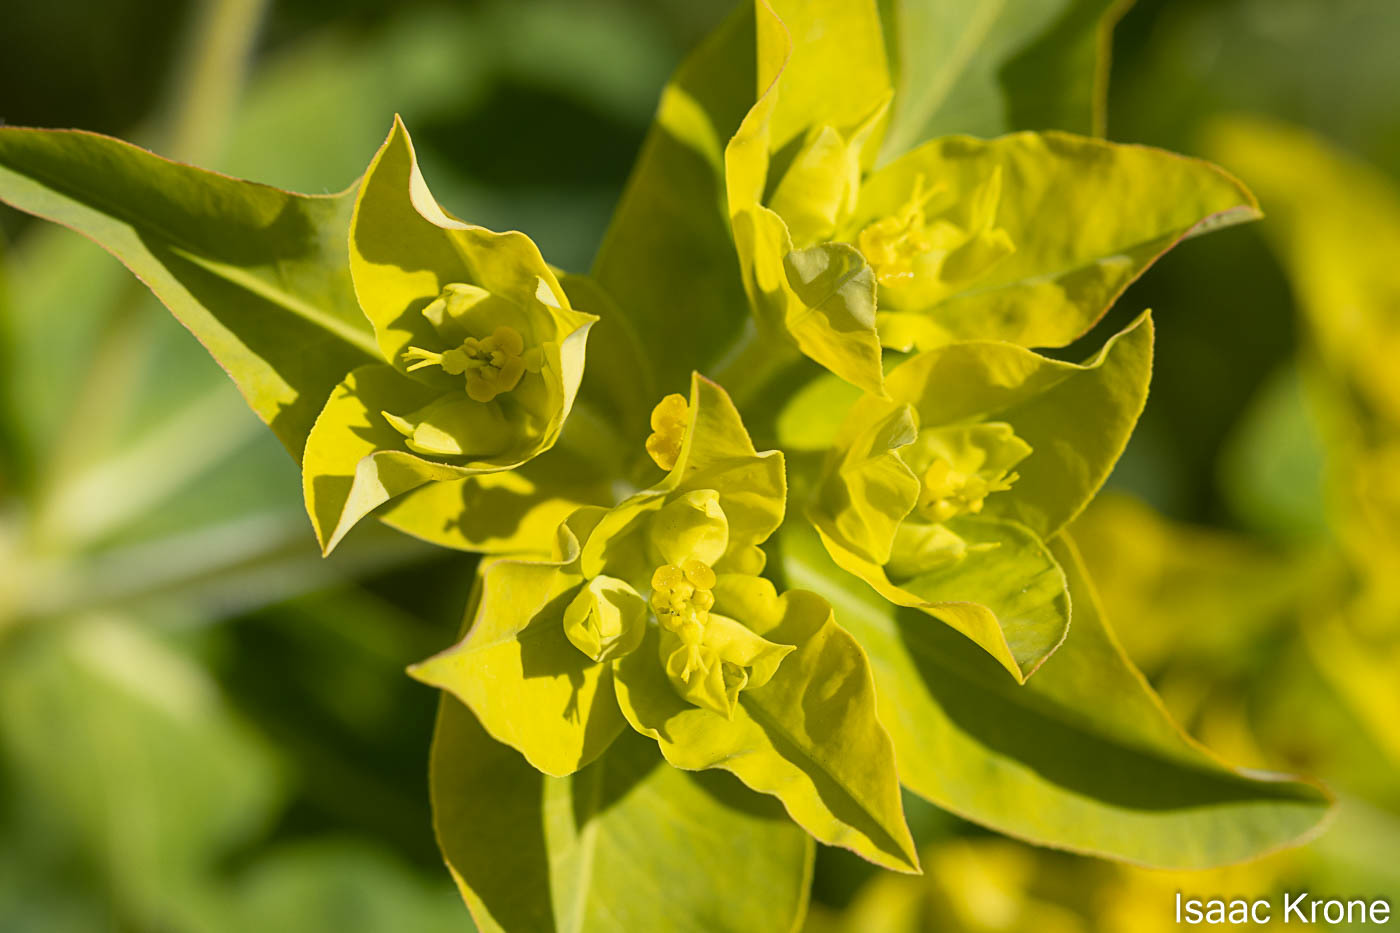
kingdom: Plantae
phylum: Tracheophyta
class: Magnoliopsida
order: Malpighiales
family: Euphorbiaceae
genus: Euphorbia
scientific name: Euphorbia oblongata
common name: Balkan spurge
